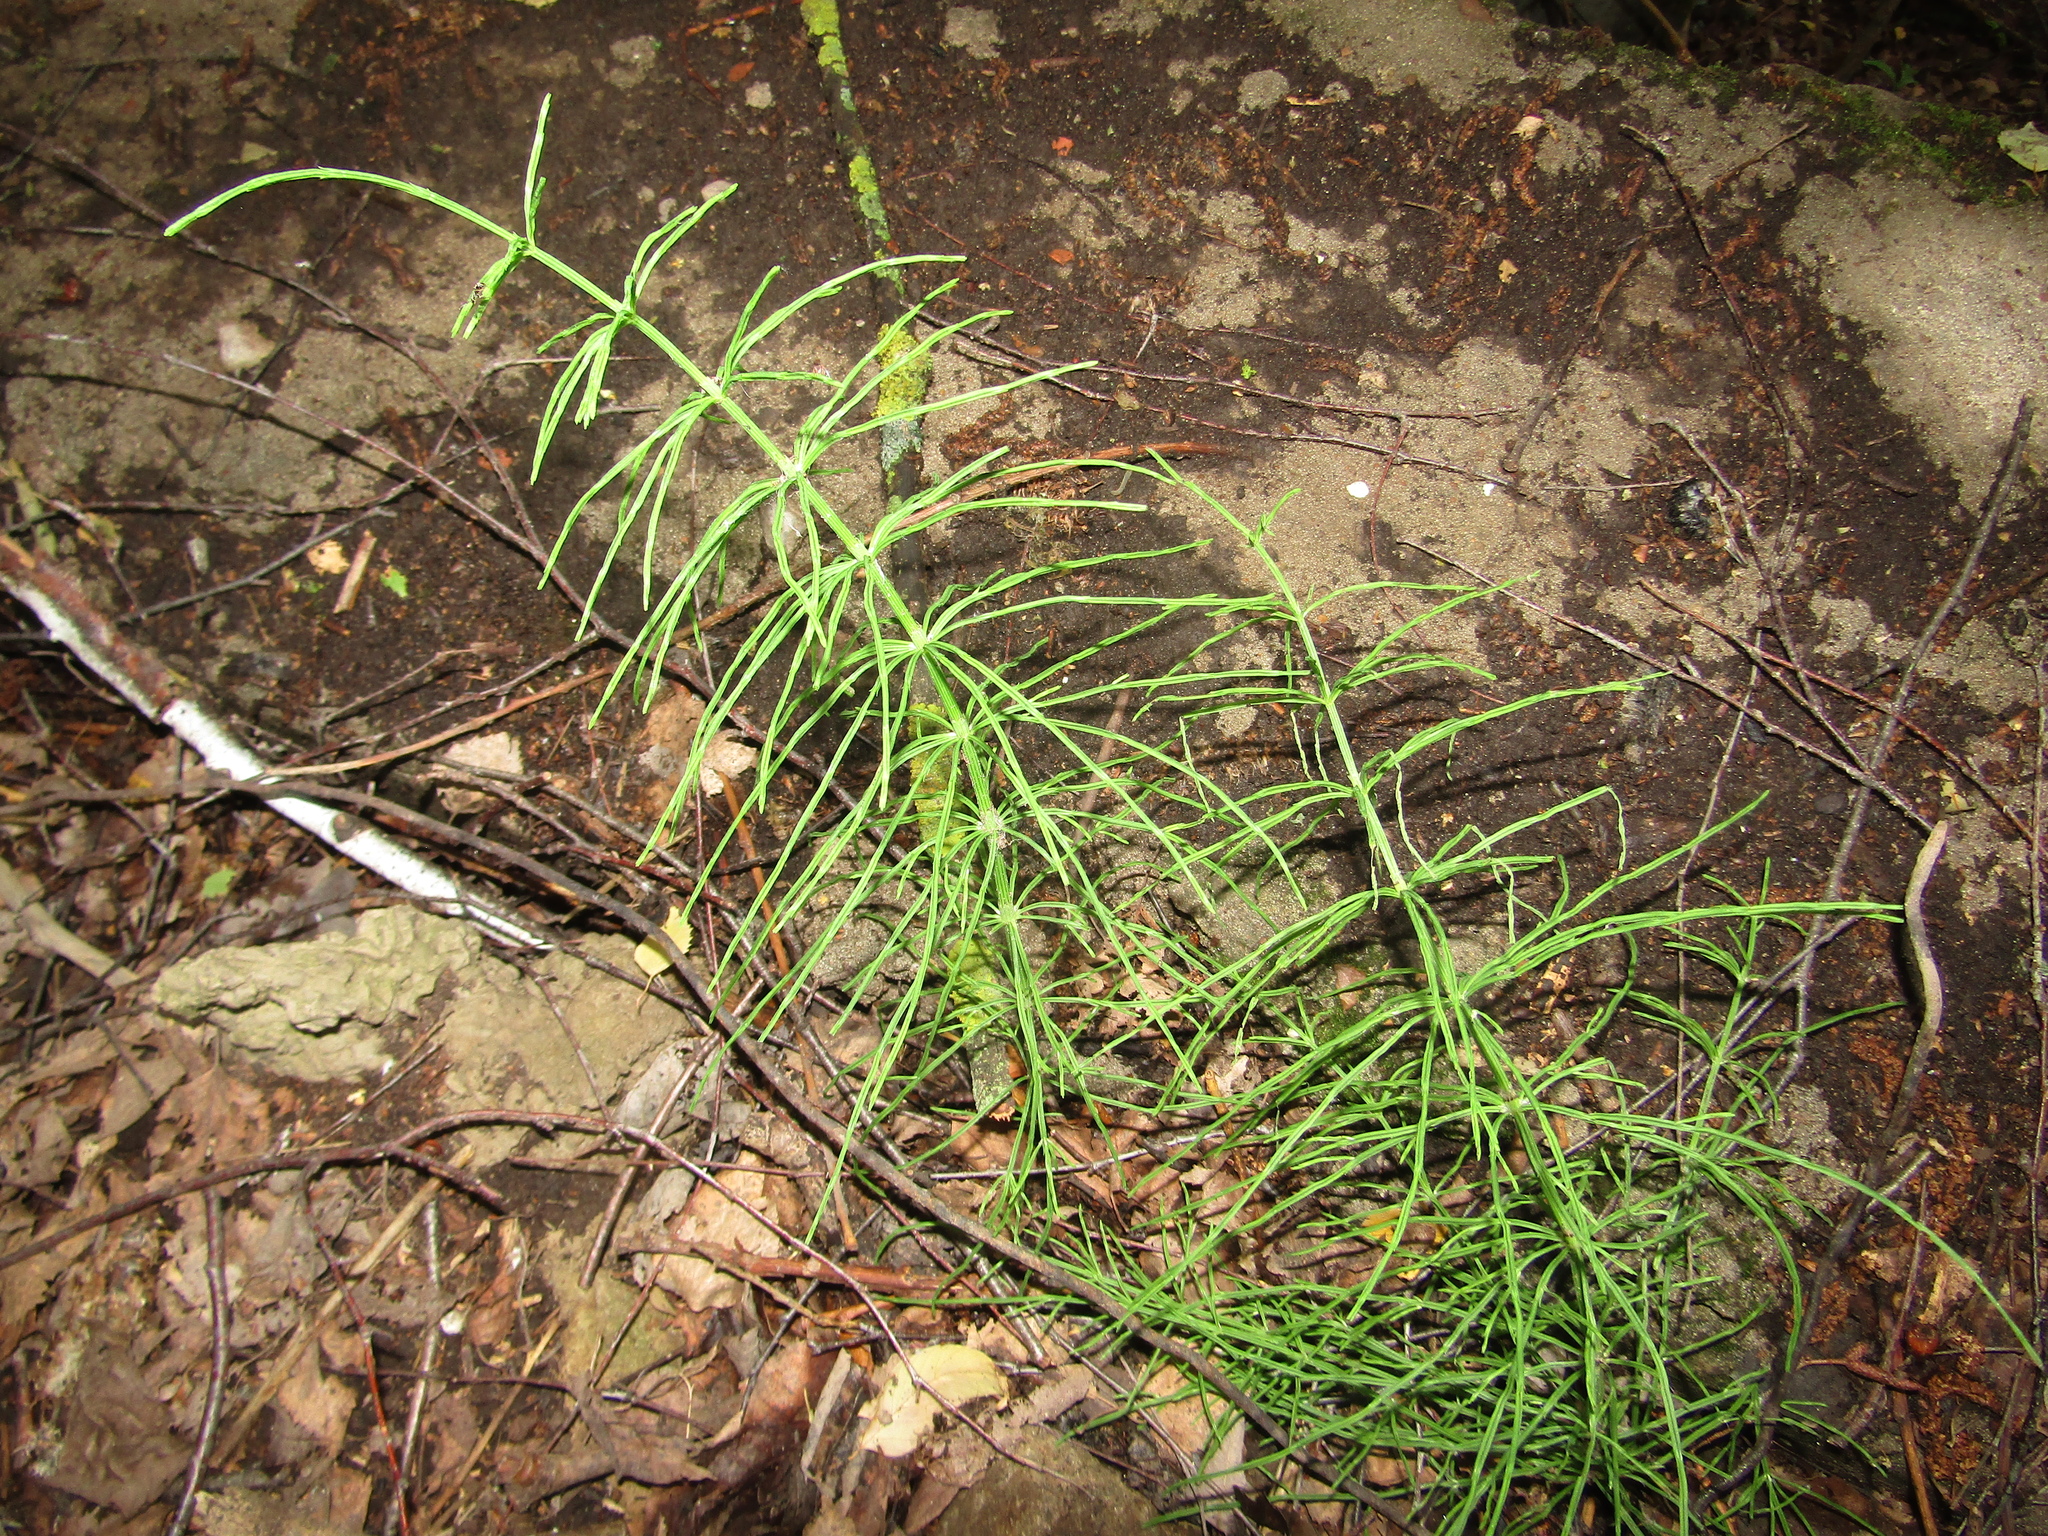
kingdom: Plantae
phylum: Tracheophyta
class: Polypodiopsida
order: Equisetales
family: Equisetaceae
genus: Equisetum
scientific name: Equisetum arvense
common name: Field horsetail
